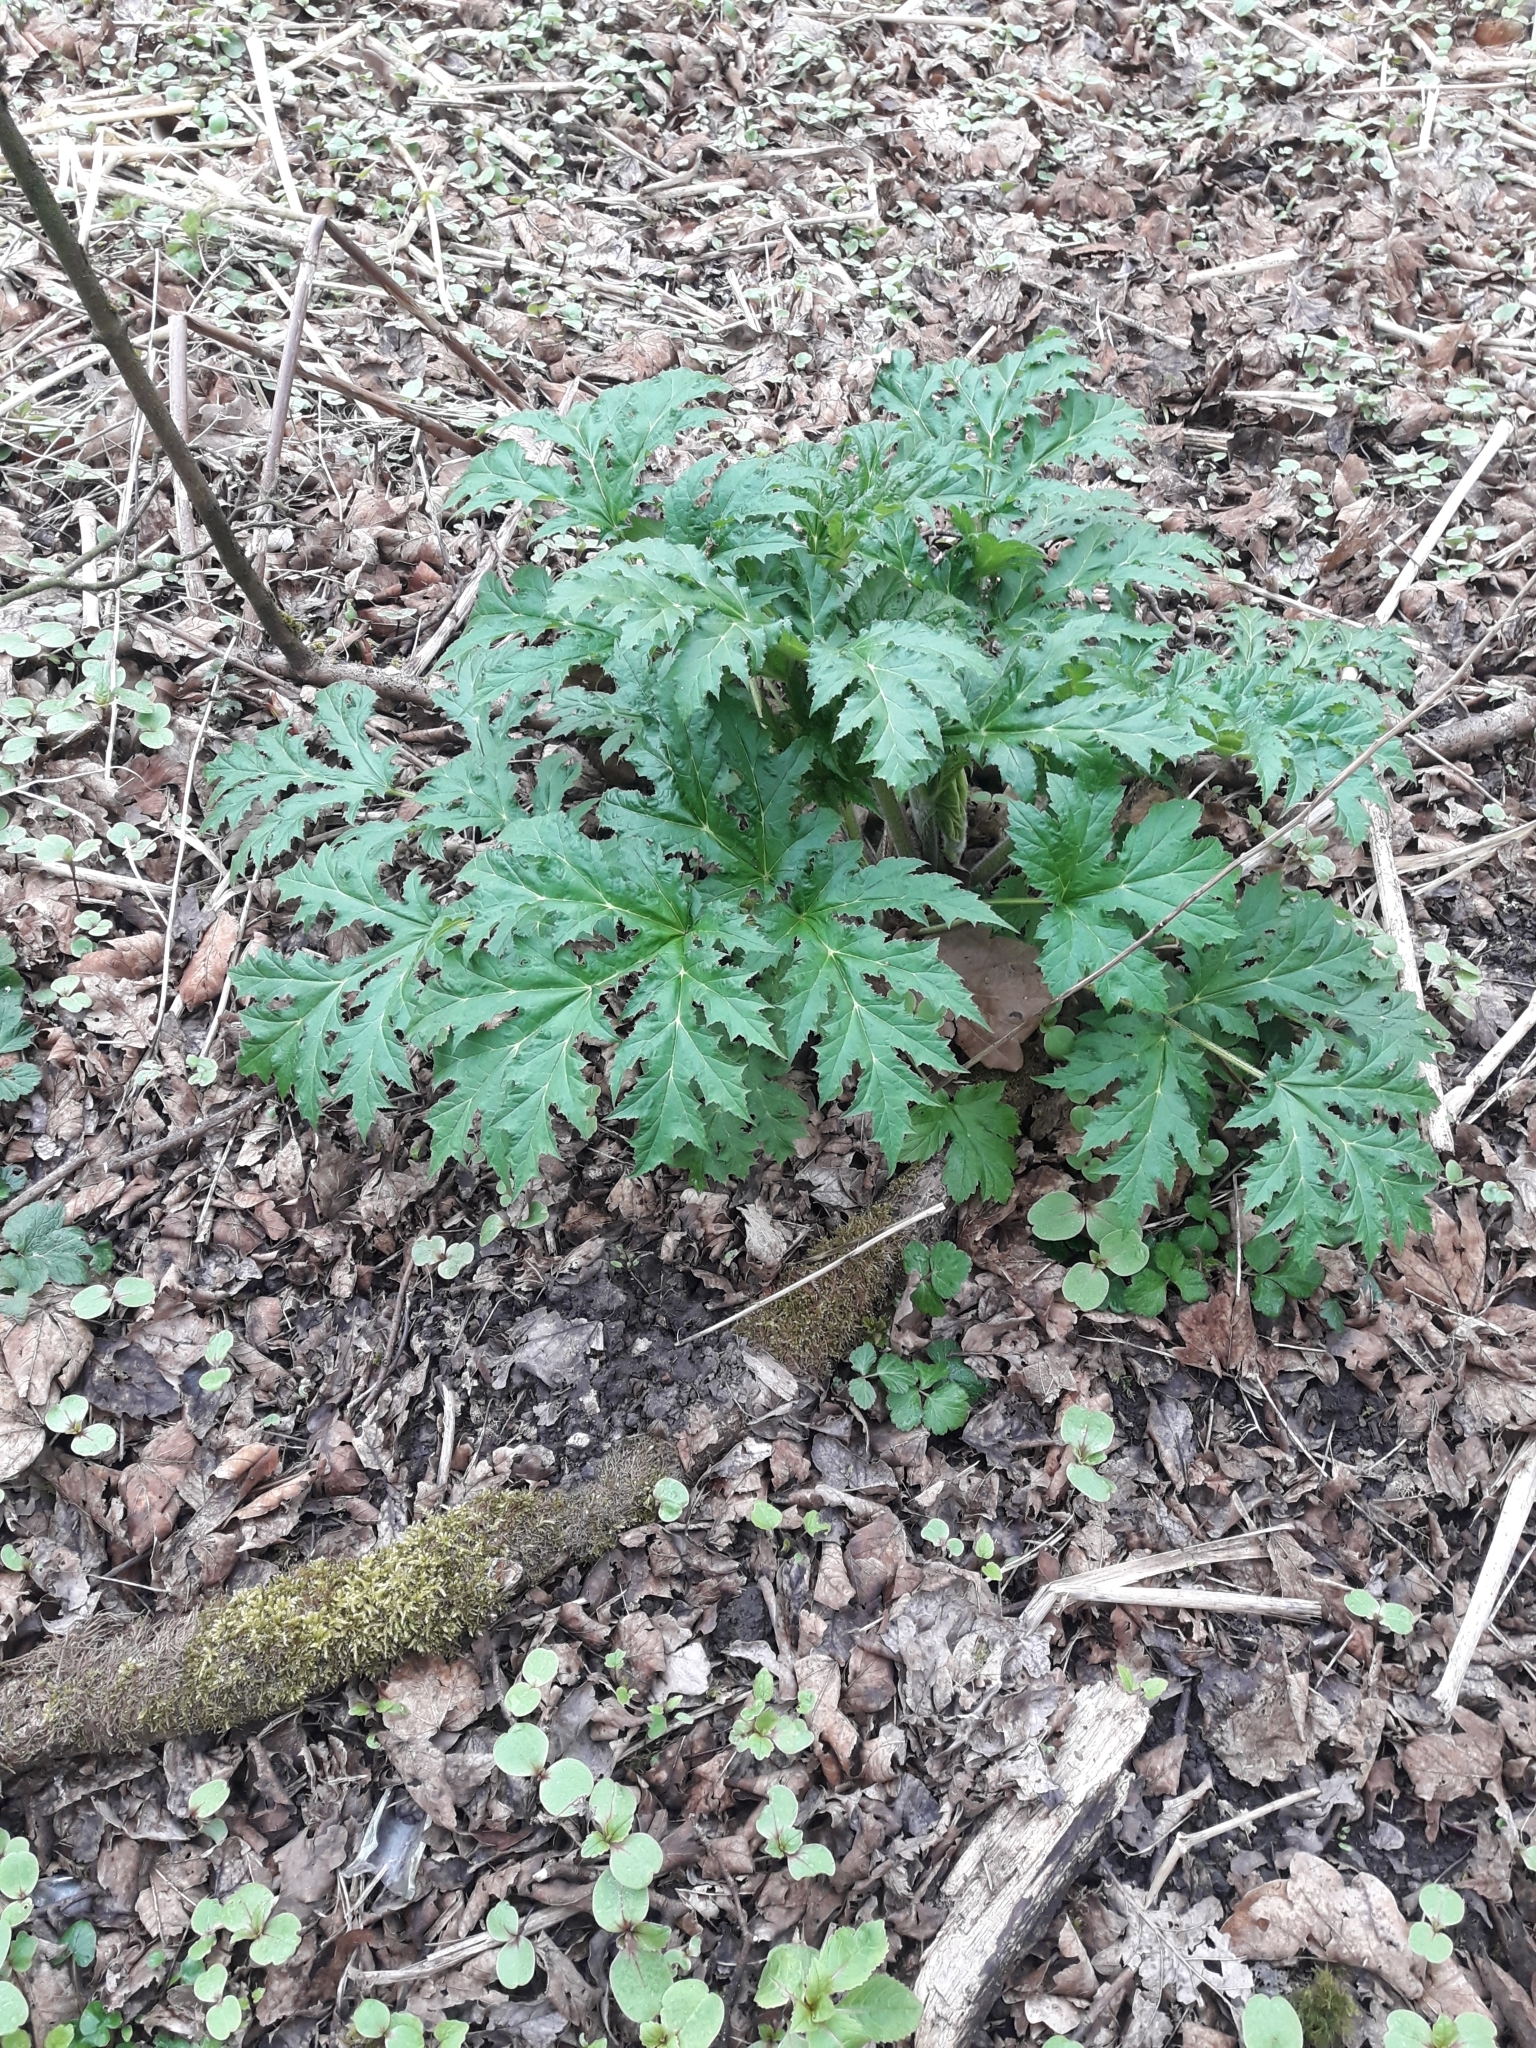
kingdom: Plantae
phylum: Tracheophyta
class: Magnoliopsida
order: Apiales
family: Apiaceae
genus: Heracleum
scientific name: Heracleum mantegazzianum
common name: Giant hogweed
